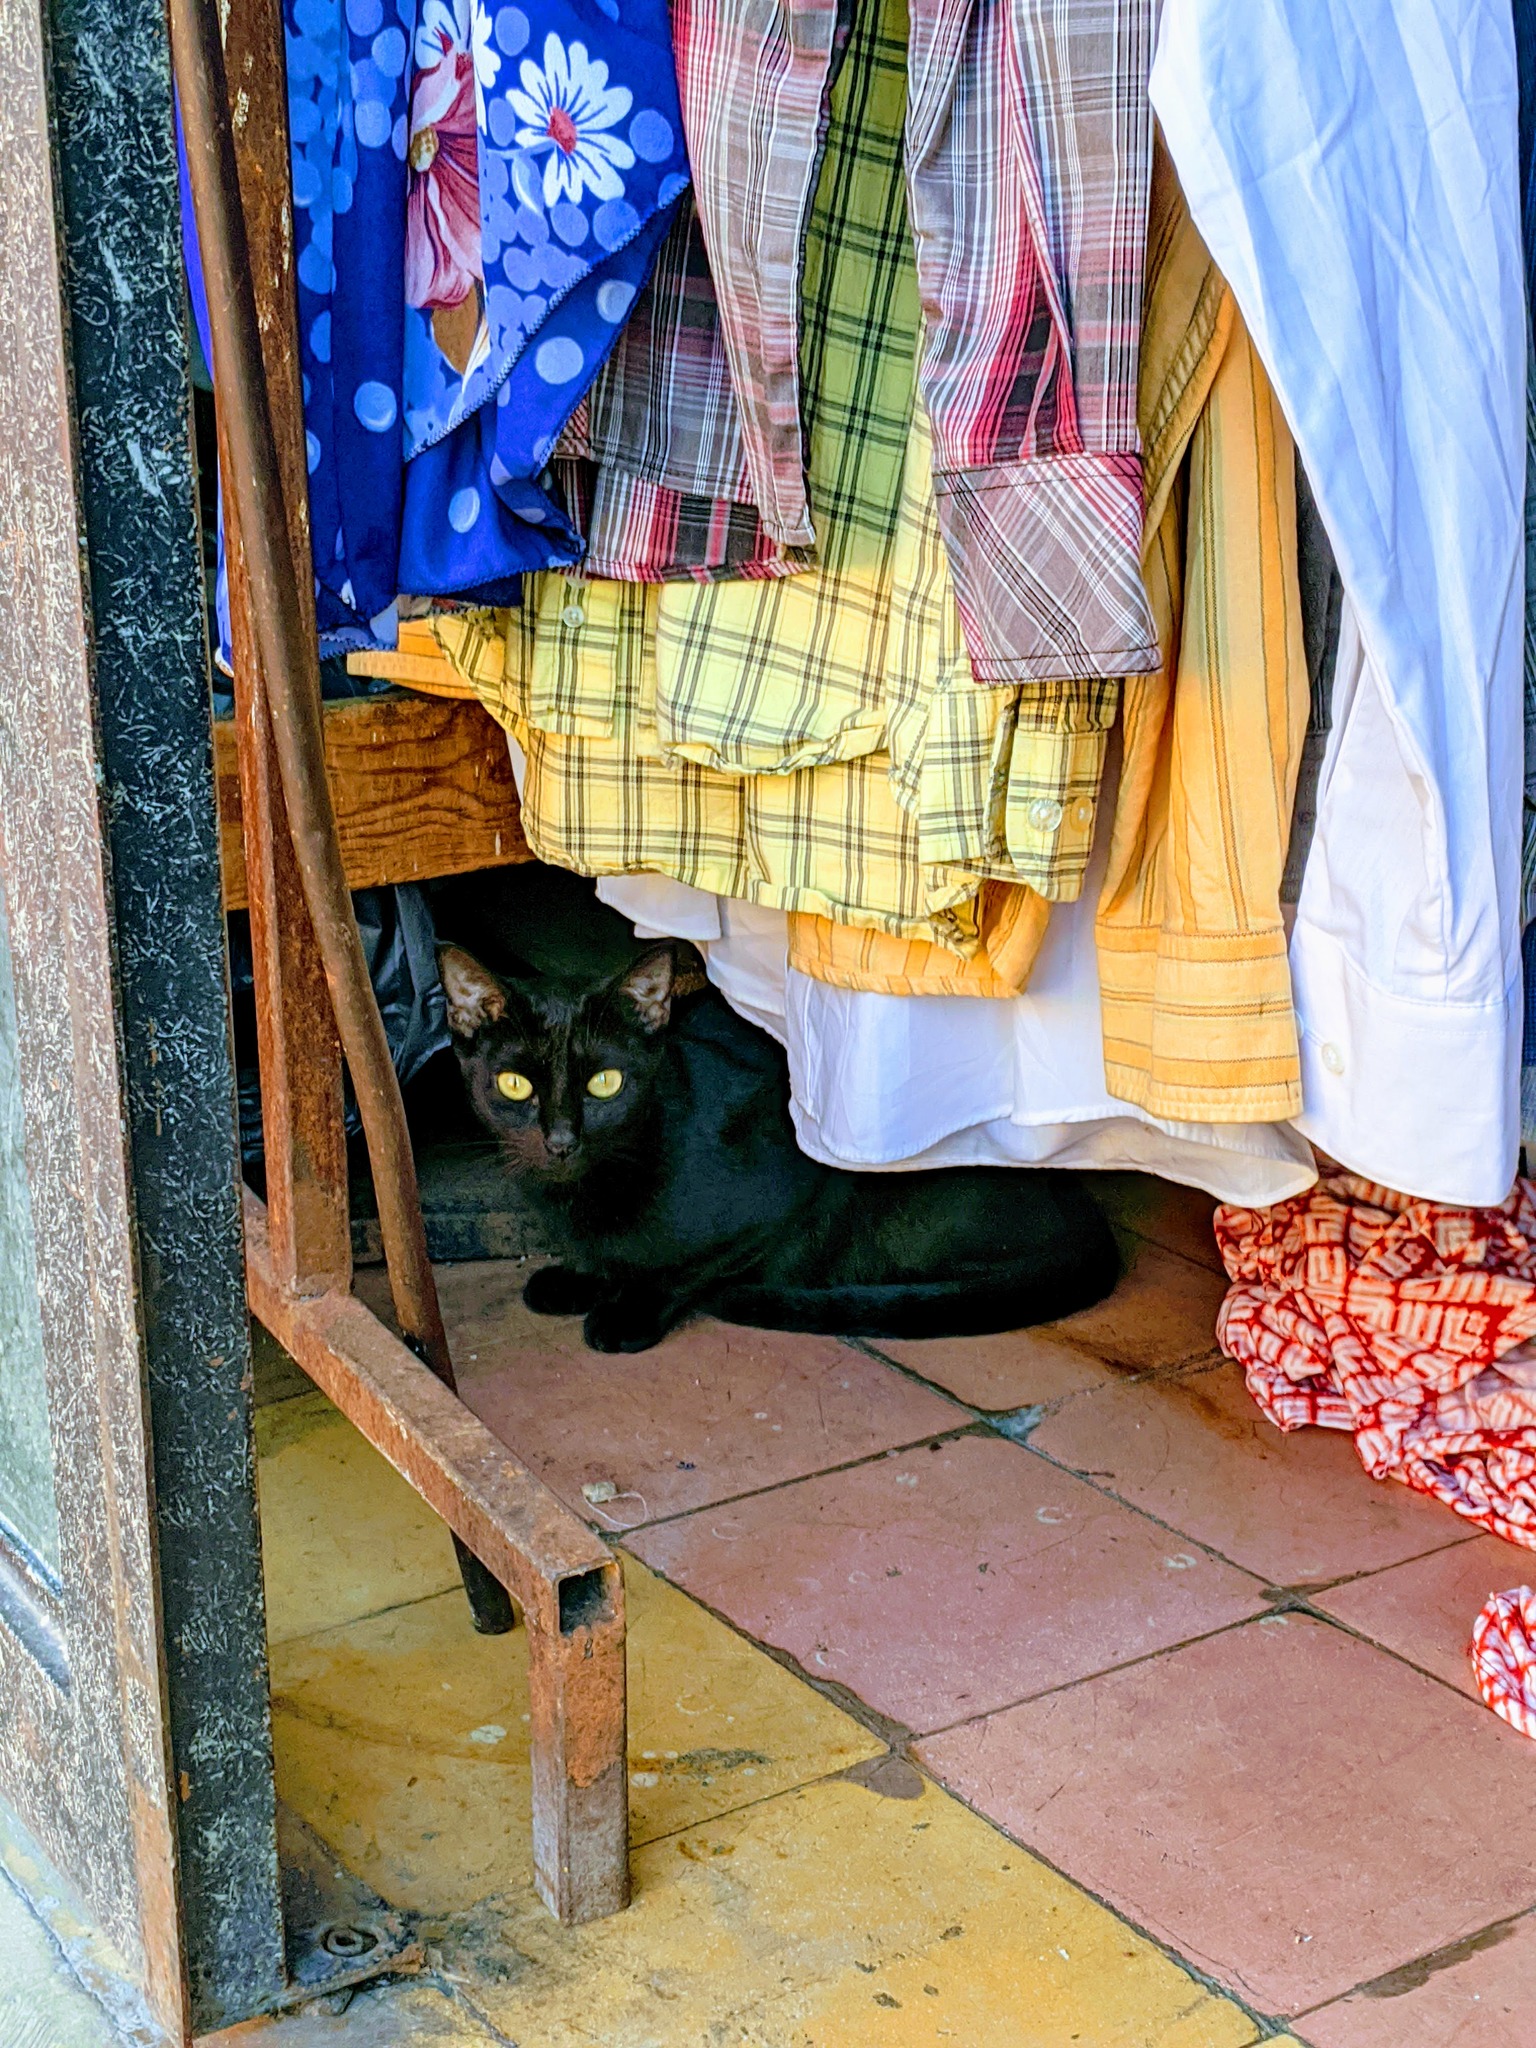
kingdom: Animalia
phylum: Chordata
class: Mammalia
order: Carnivora
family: Felidae
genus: Felis
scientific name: Felis catus
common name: Domestic cat
